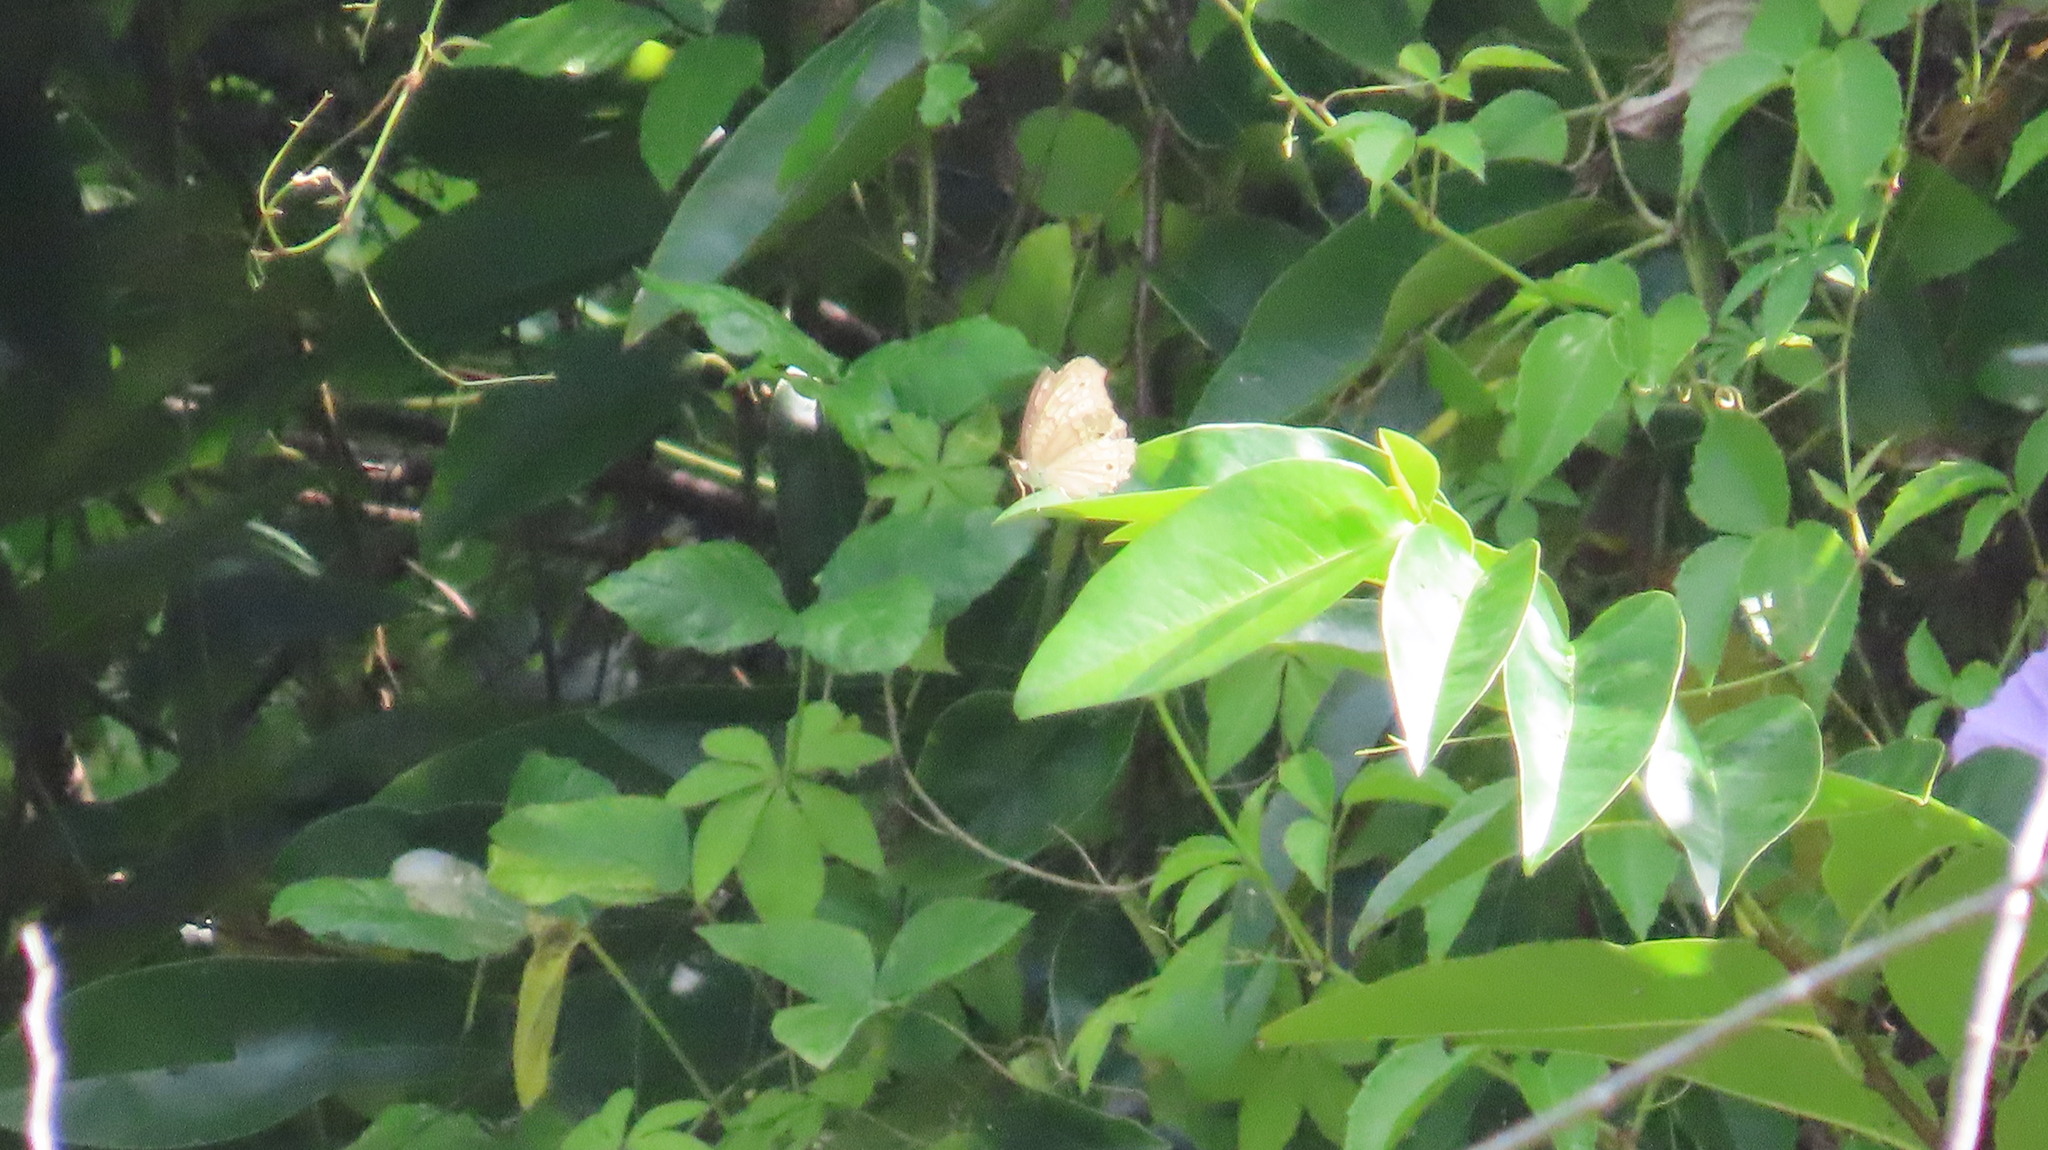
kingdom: Animalia
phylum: Arthropoda
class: Insecta
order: Lepidoptera
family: Nymphalidae
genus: Junonia
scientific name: Junonia atlites
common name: Grey pansy
